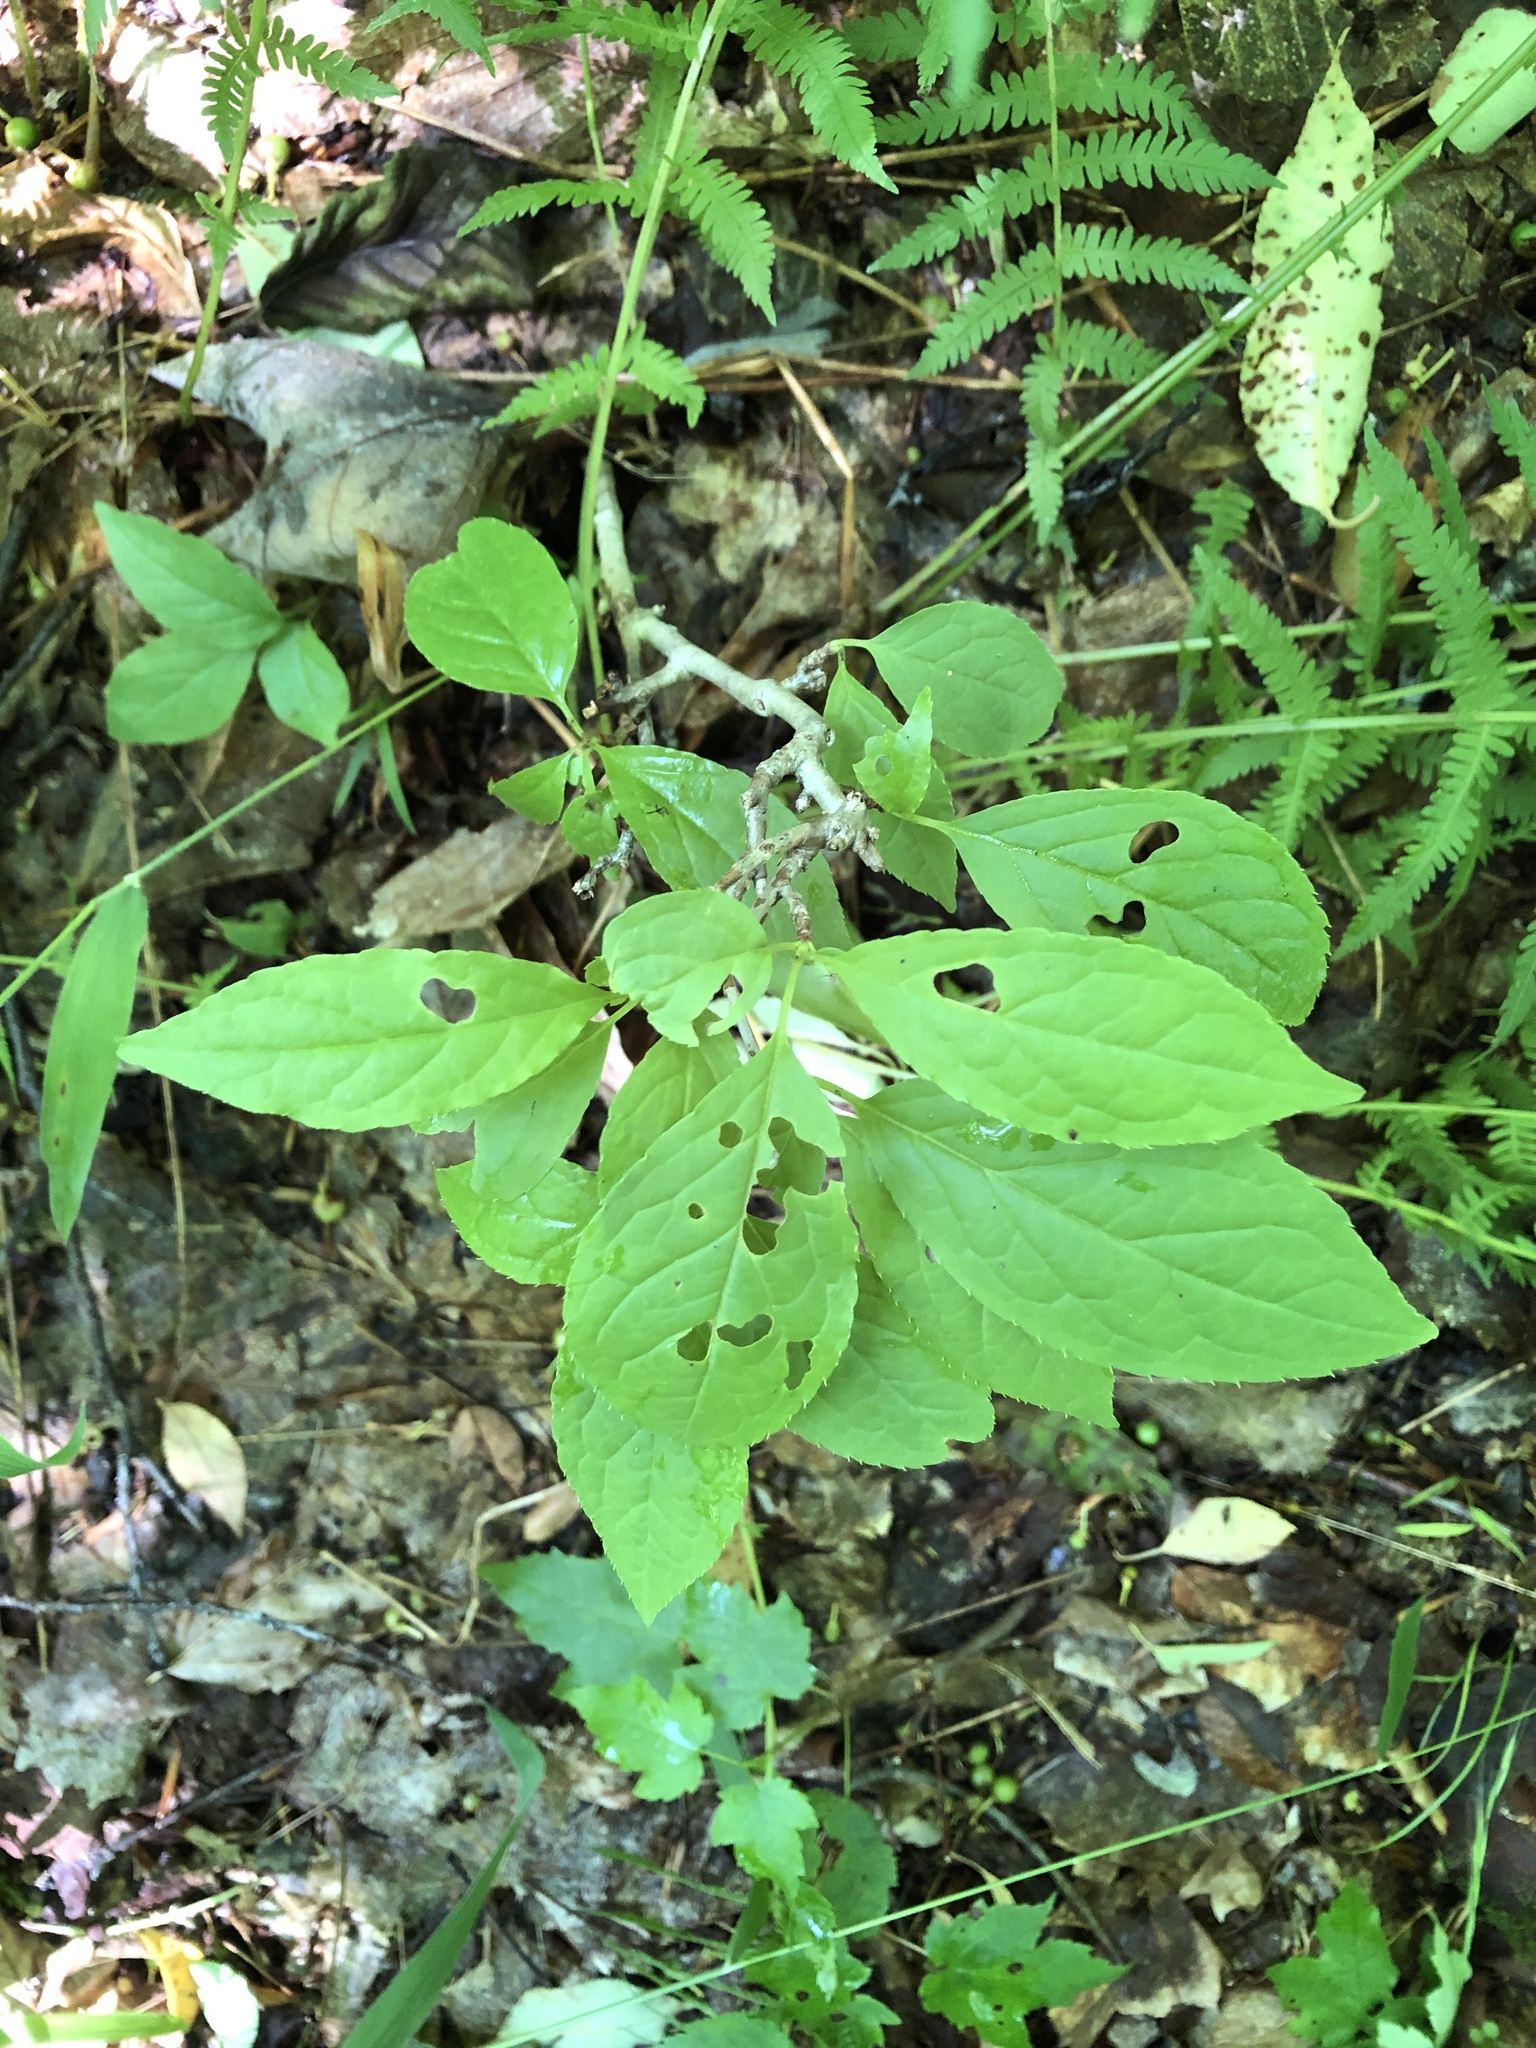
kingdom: Plantae
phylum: Tracheophyta
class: Magnoliopsida
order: Aquifoliales
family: Aquifoliaceae
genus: Ilex
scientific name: Ilex montana
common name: Mountain winterberry
